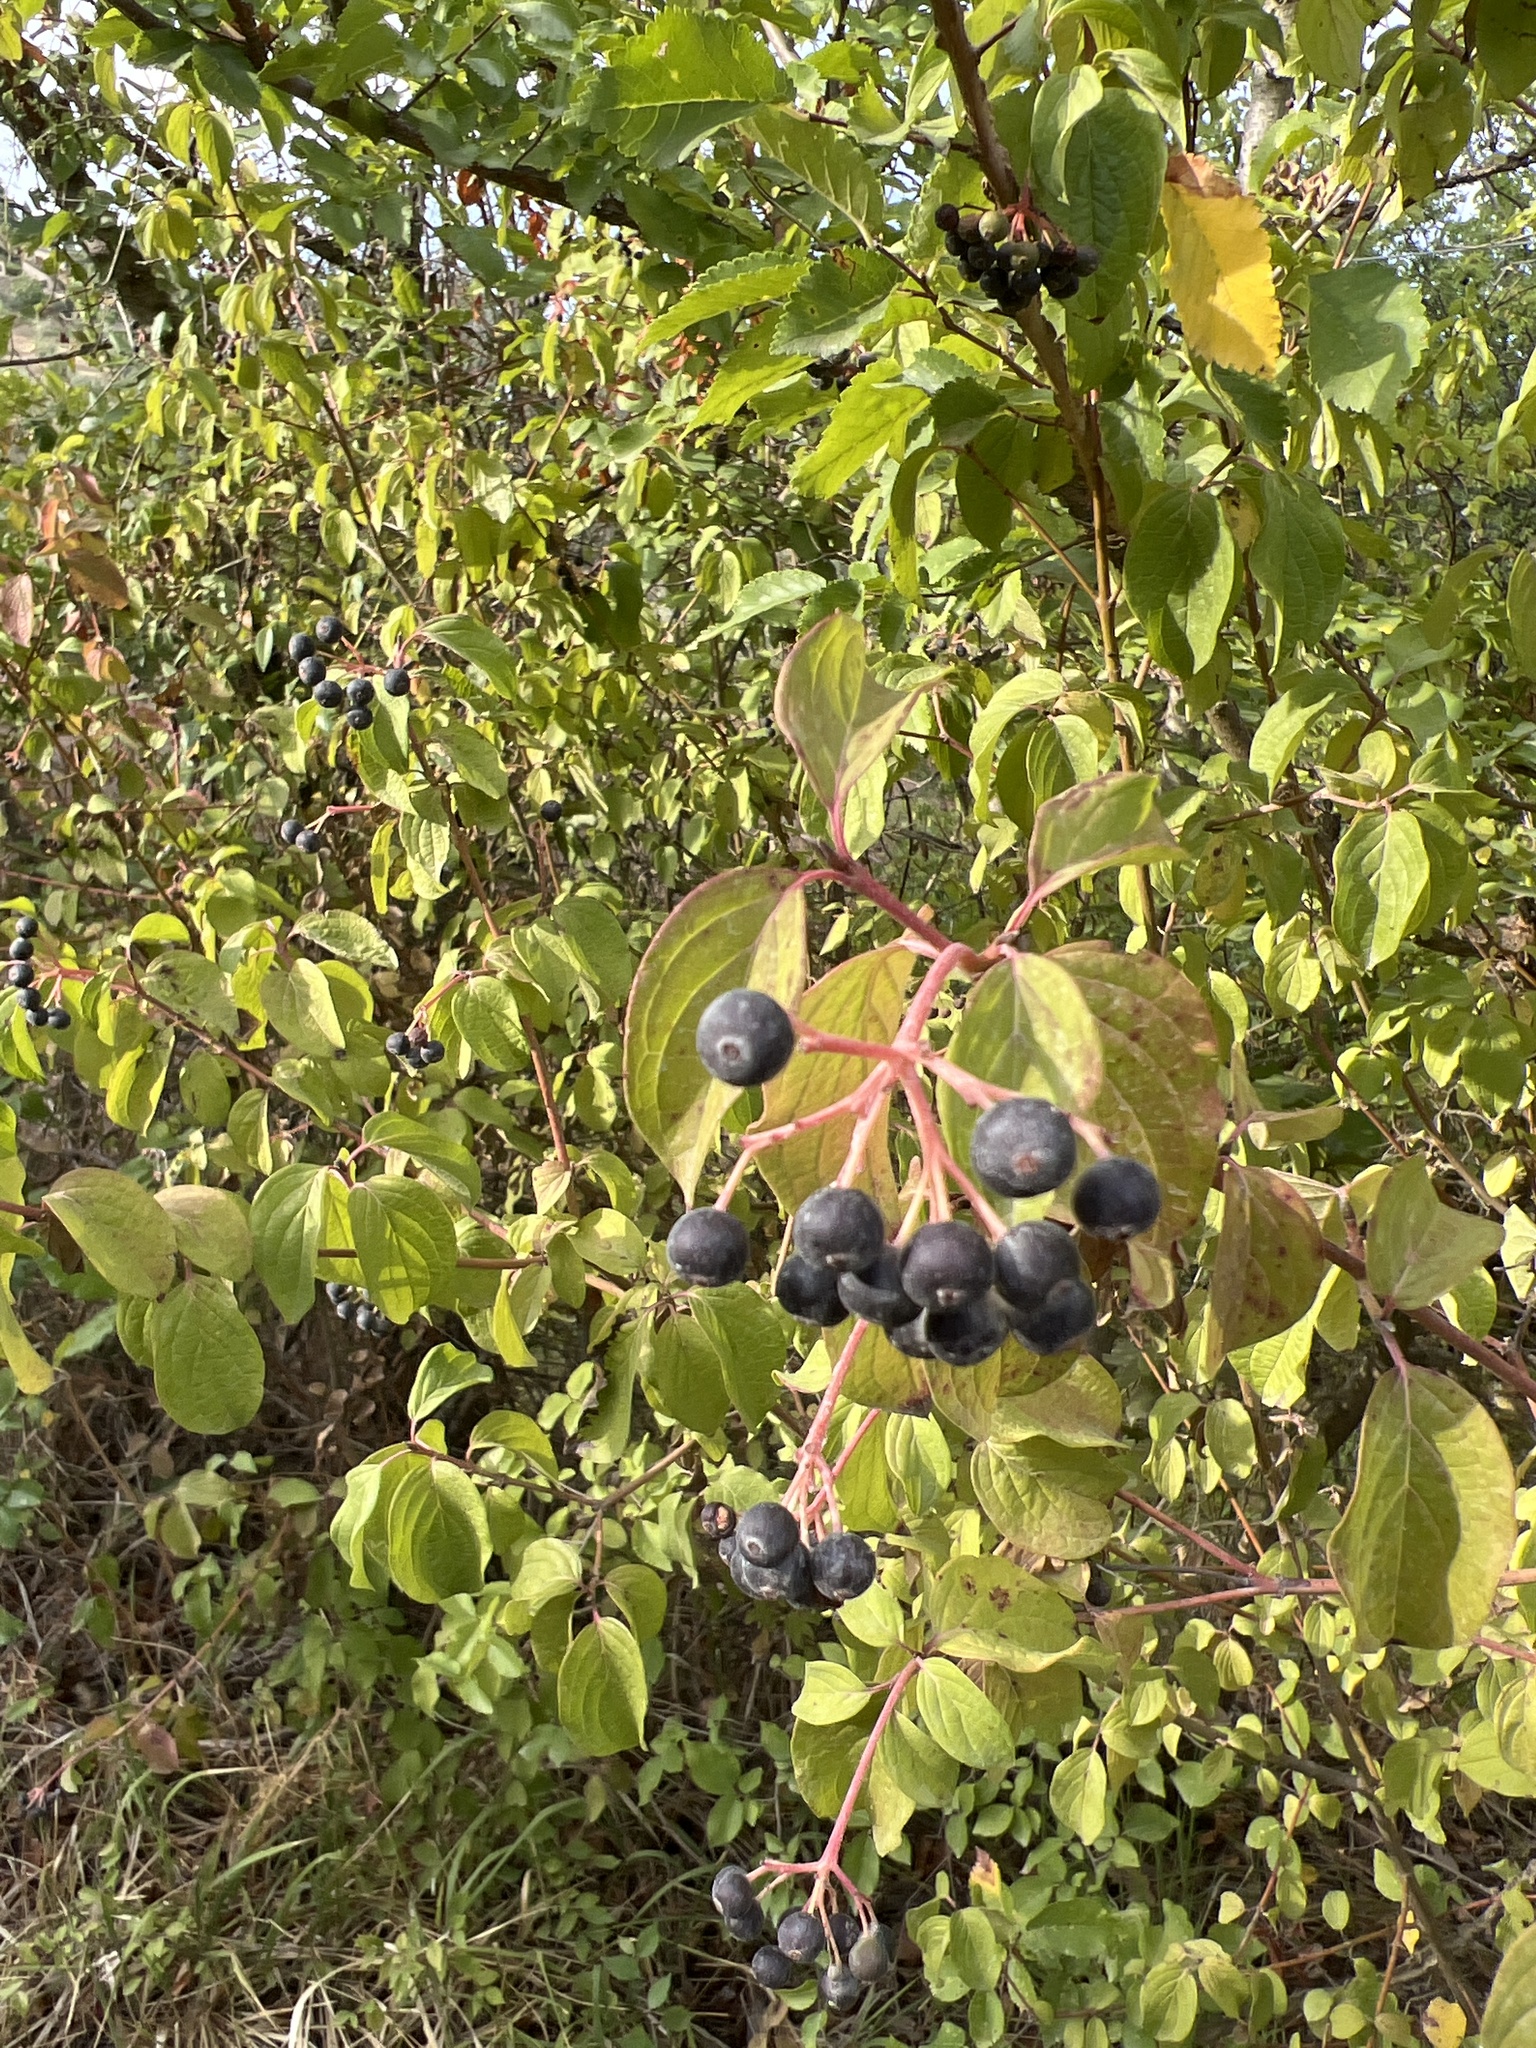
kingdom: Plantae
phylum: Tracheophyta
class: Magnoliopsida
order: Cornales
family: Cornaceae
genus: Cornus
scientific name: Cornus sanguinea
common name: Dogwood
